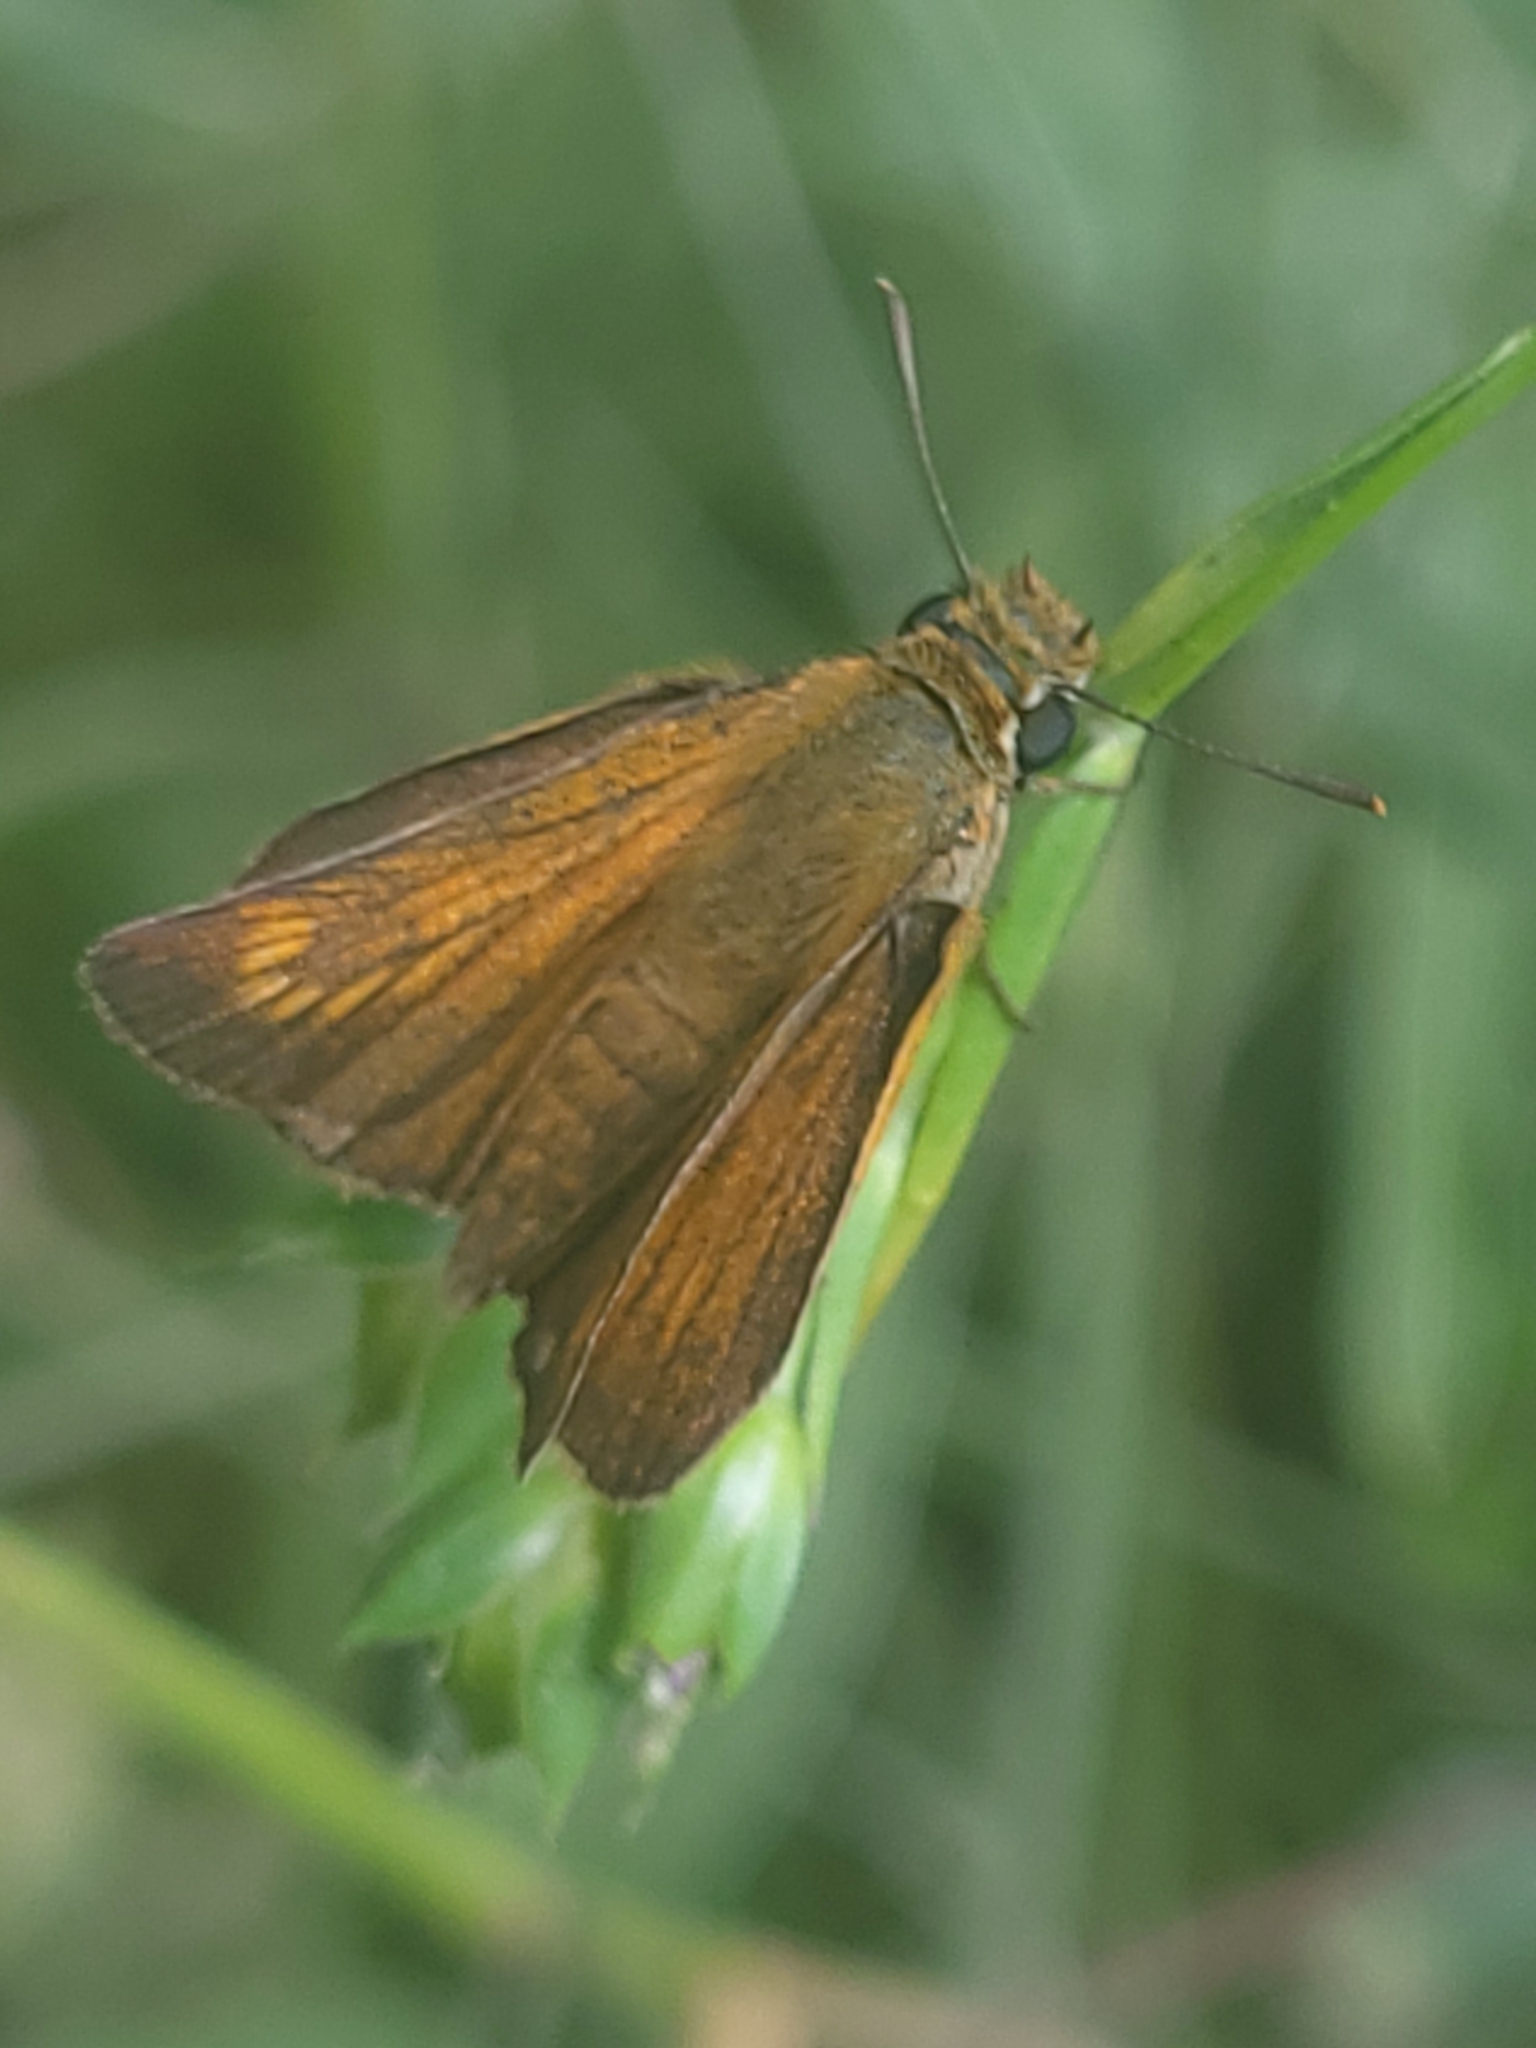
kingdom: Animalia
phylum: Arthropoda
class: Insecta
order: Lepidoptera
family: Hesperiidae
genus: Thymelicus
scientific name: Thymelicus acteon
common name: Lulworth skipper
